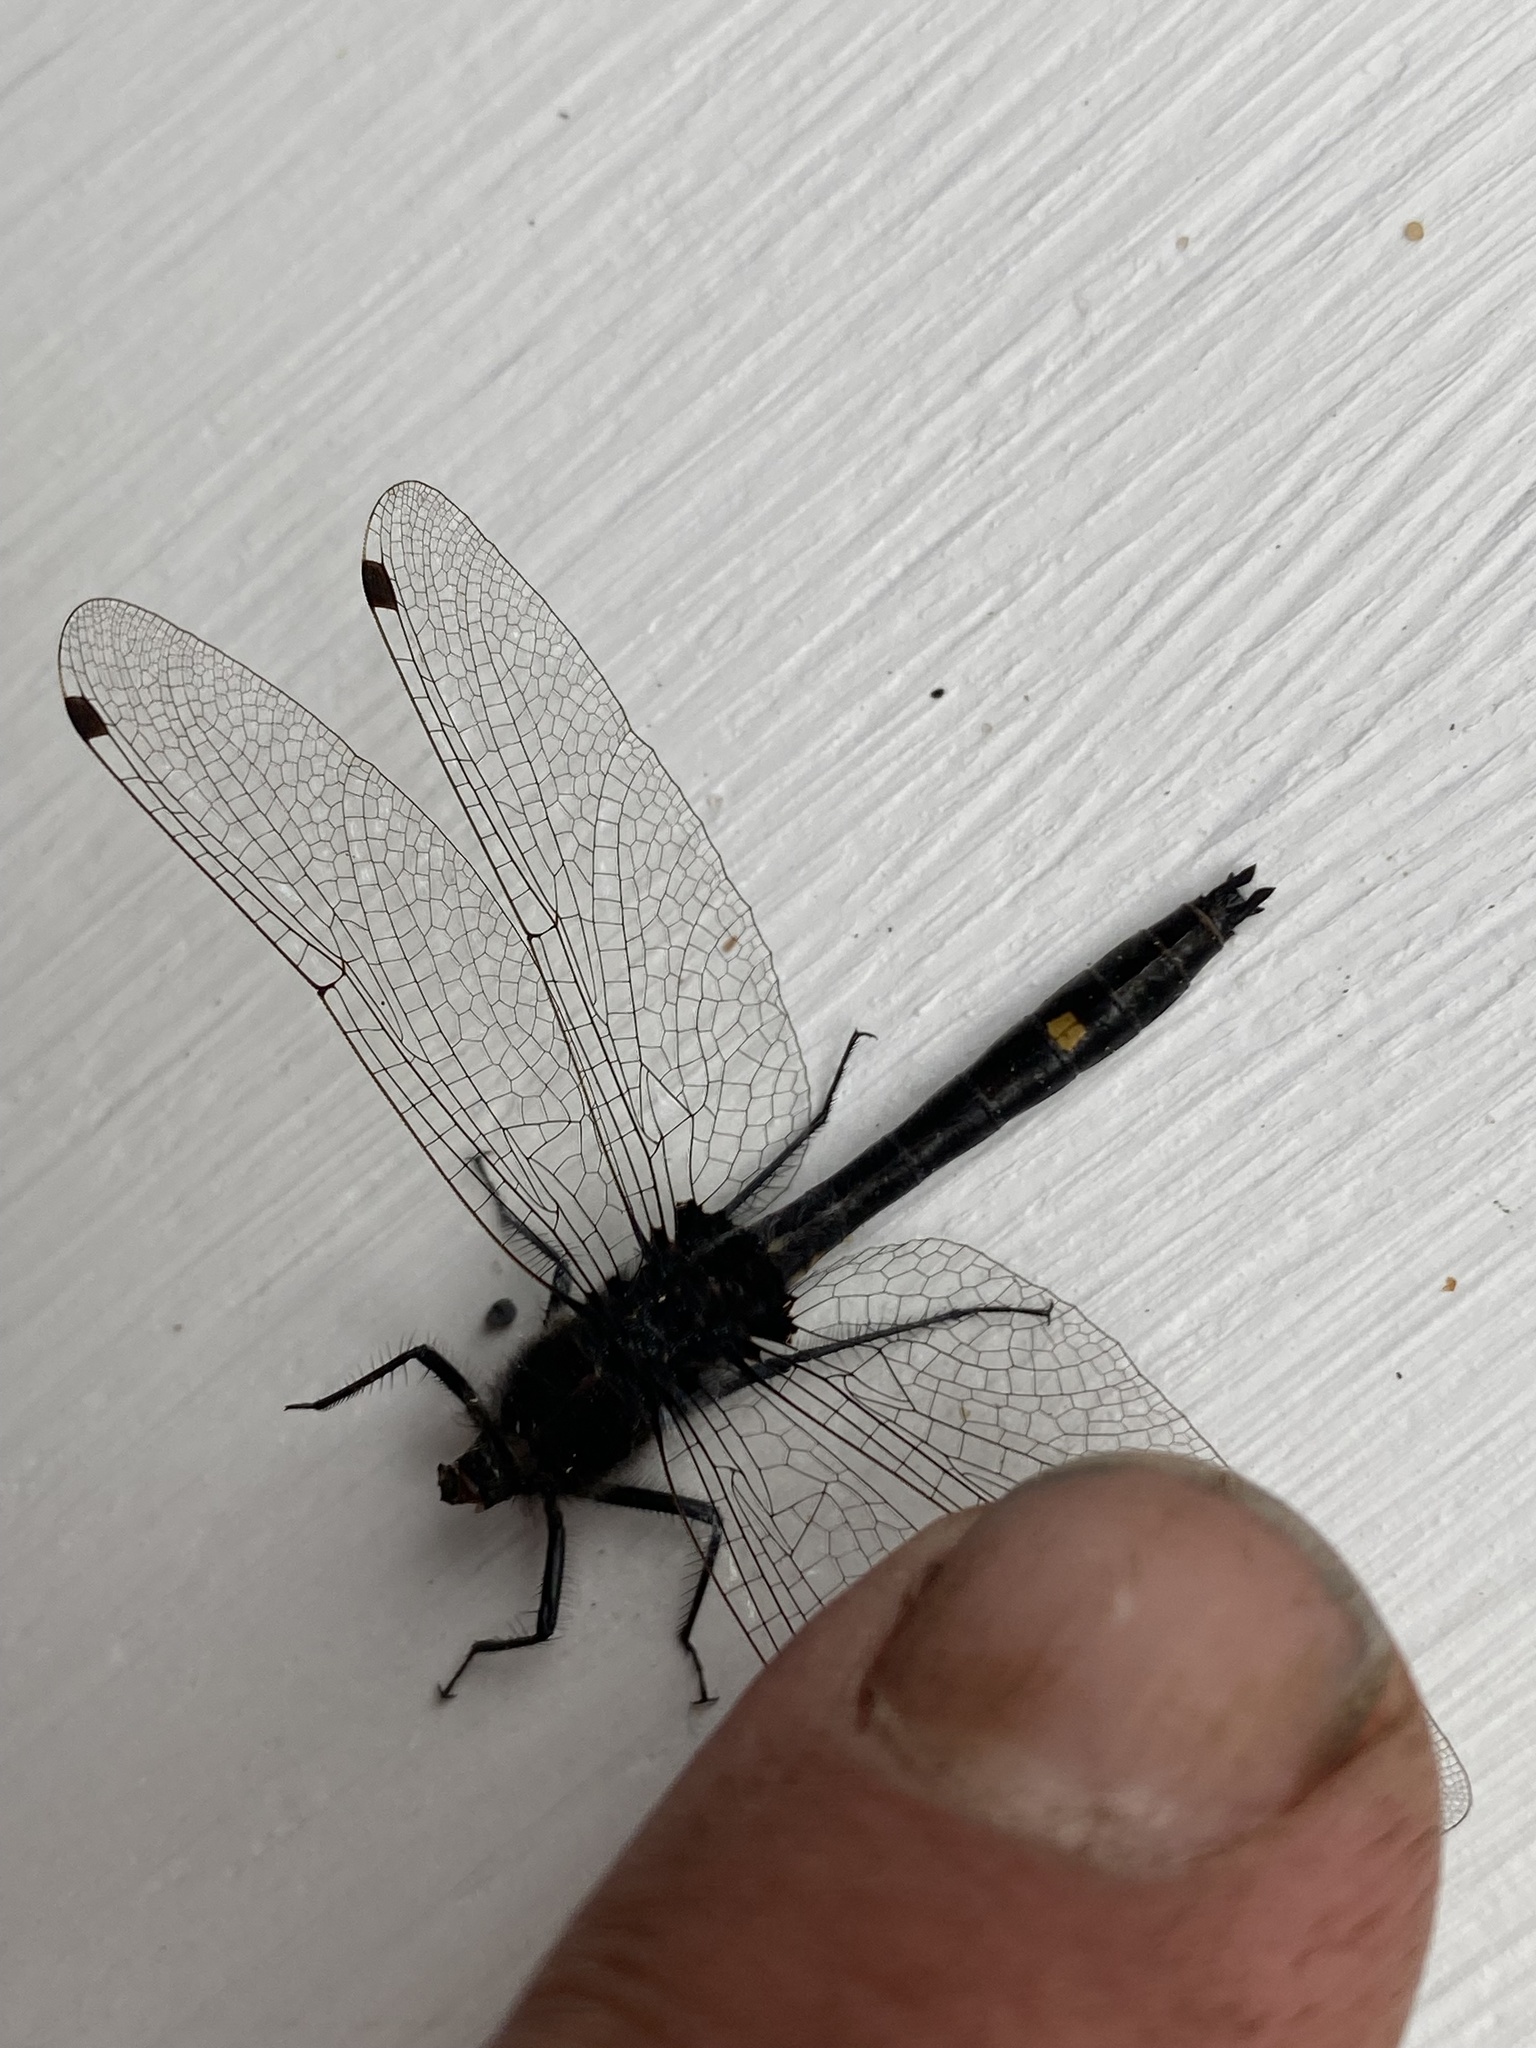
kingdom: Animalia
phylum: Arthropoda
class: Insecta
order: Odonata
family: Libellulidae
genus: Leucorrhinia
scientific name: Leucorrhinia intacta
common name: Dot-tailed whiteface
